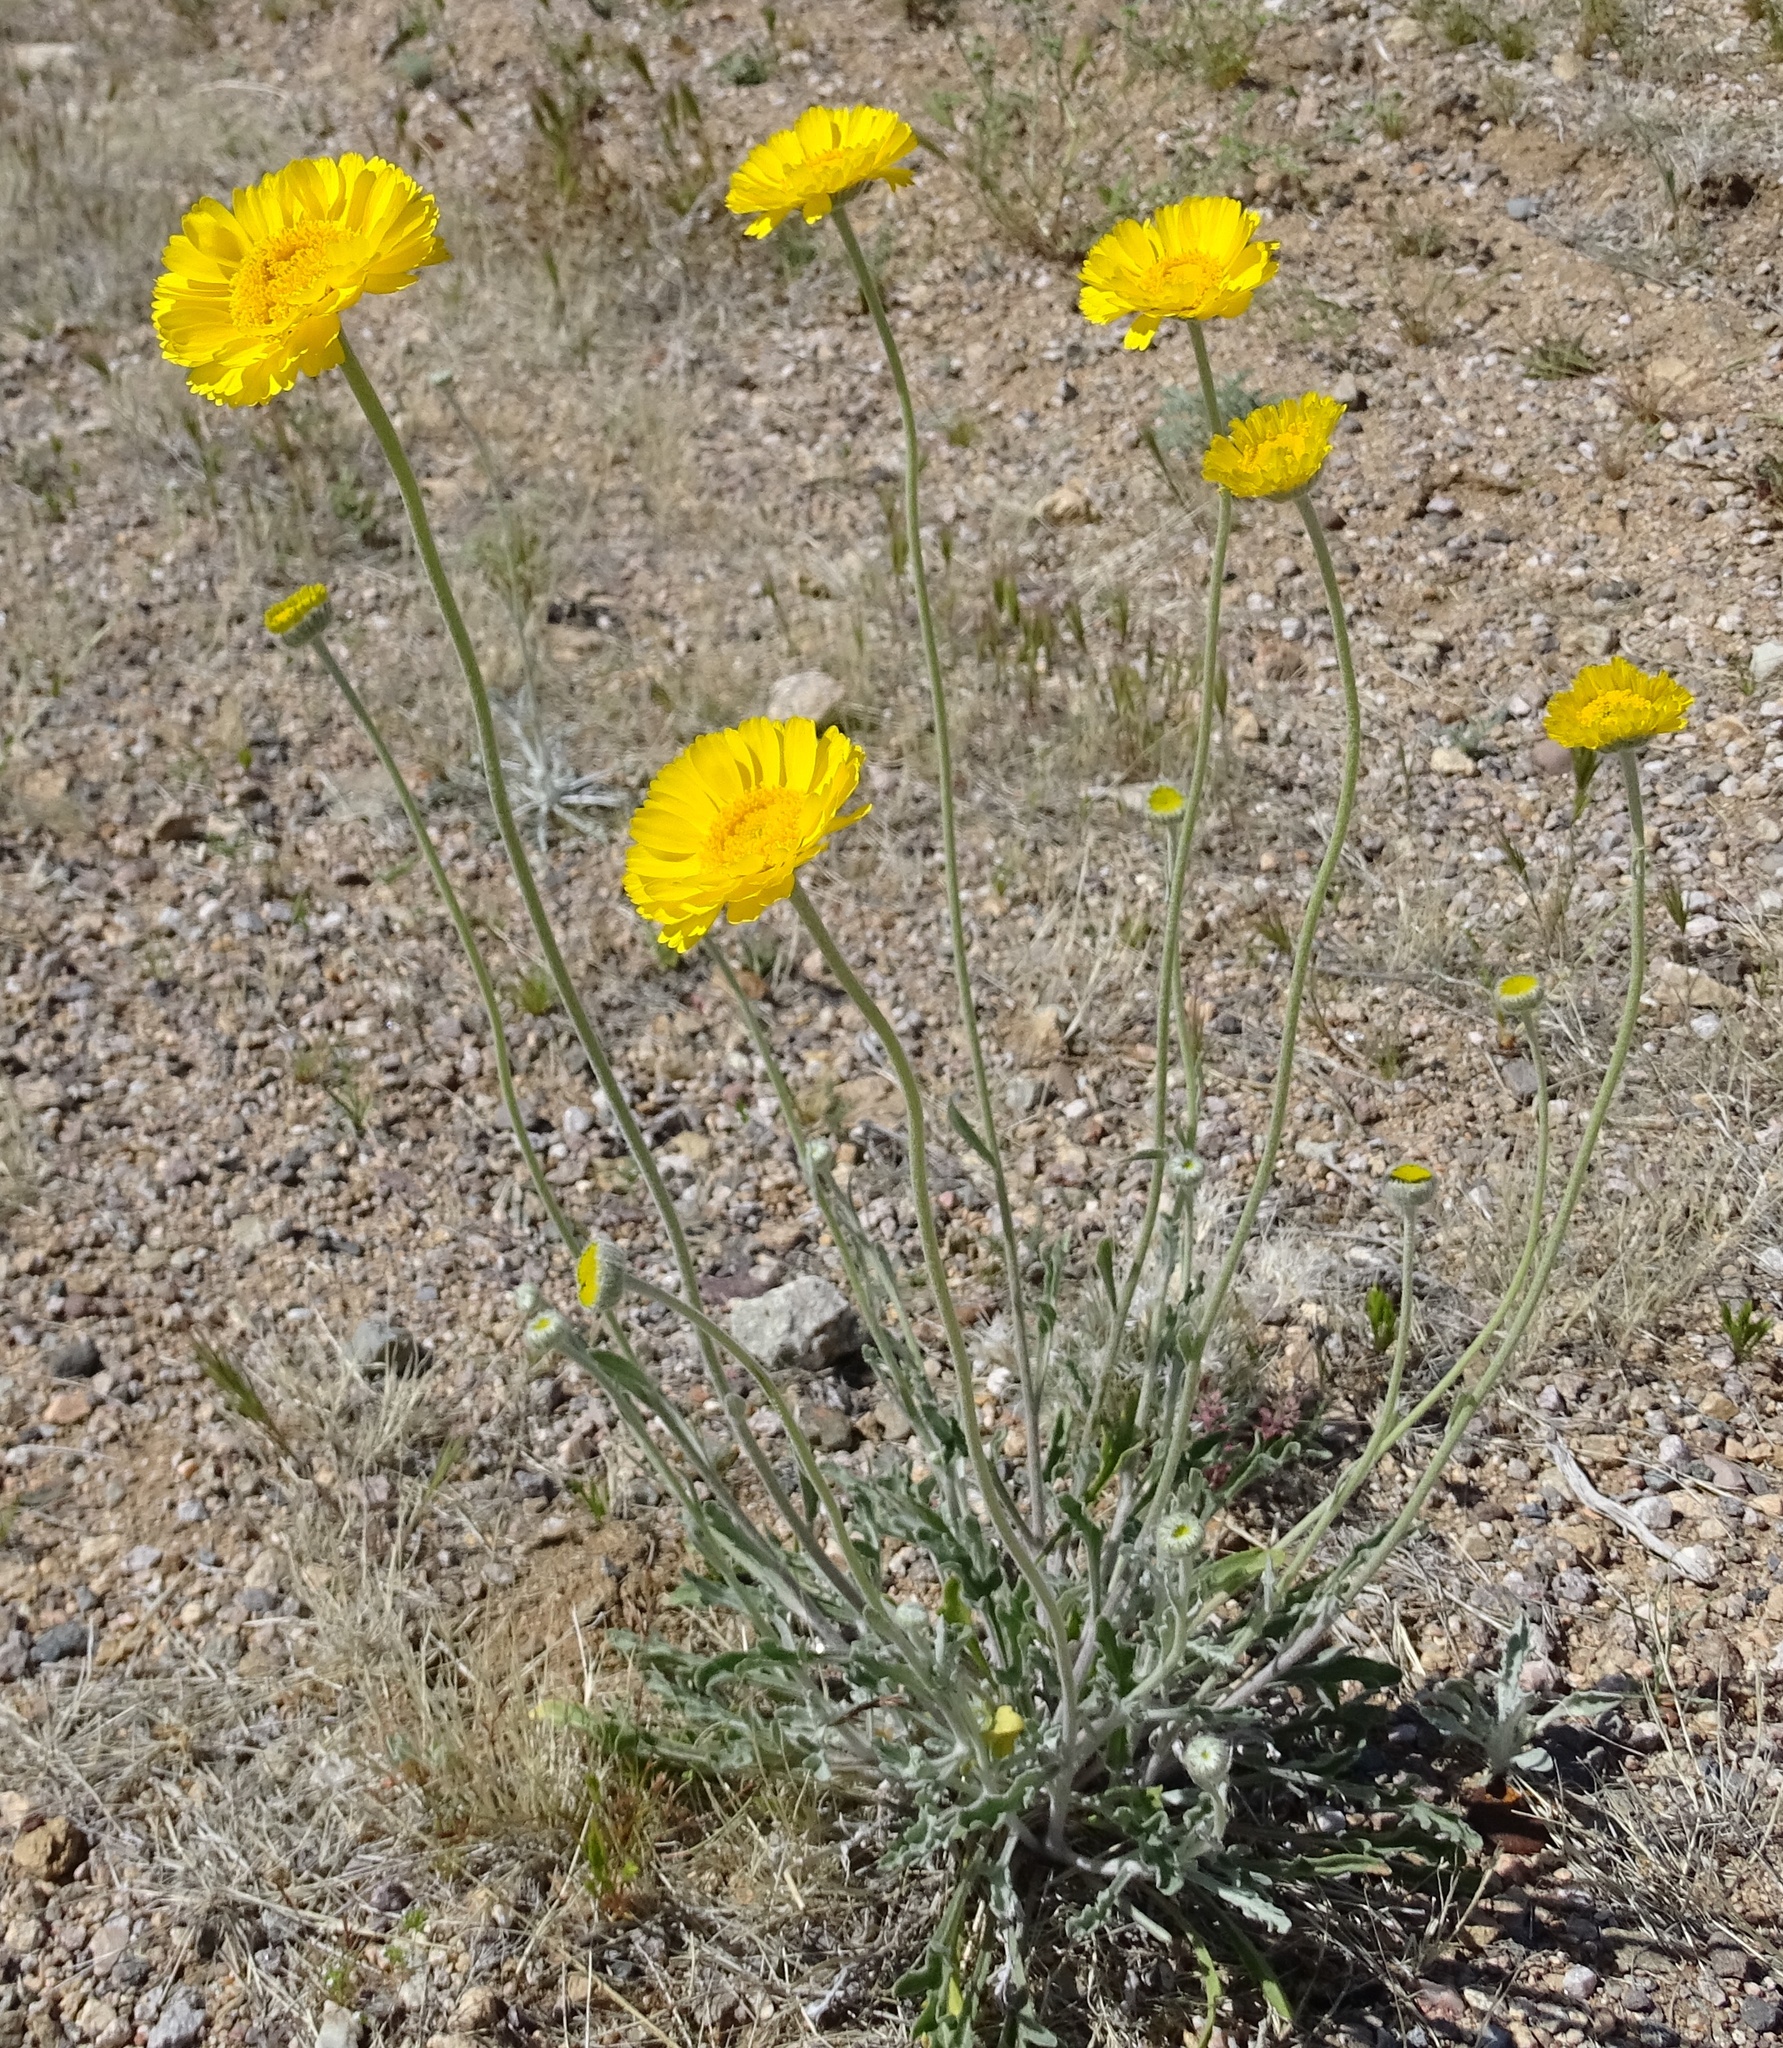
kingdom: Plantae
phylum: Tracheophyta
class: Magnoliopsida
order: Asterales
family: Asteraceae
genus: Baileya
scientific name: Baileya multiradiata
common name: Desert-marigold
